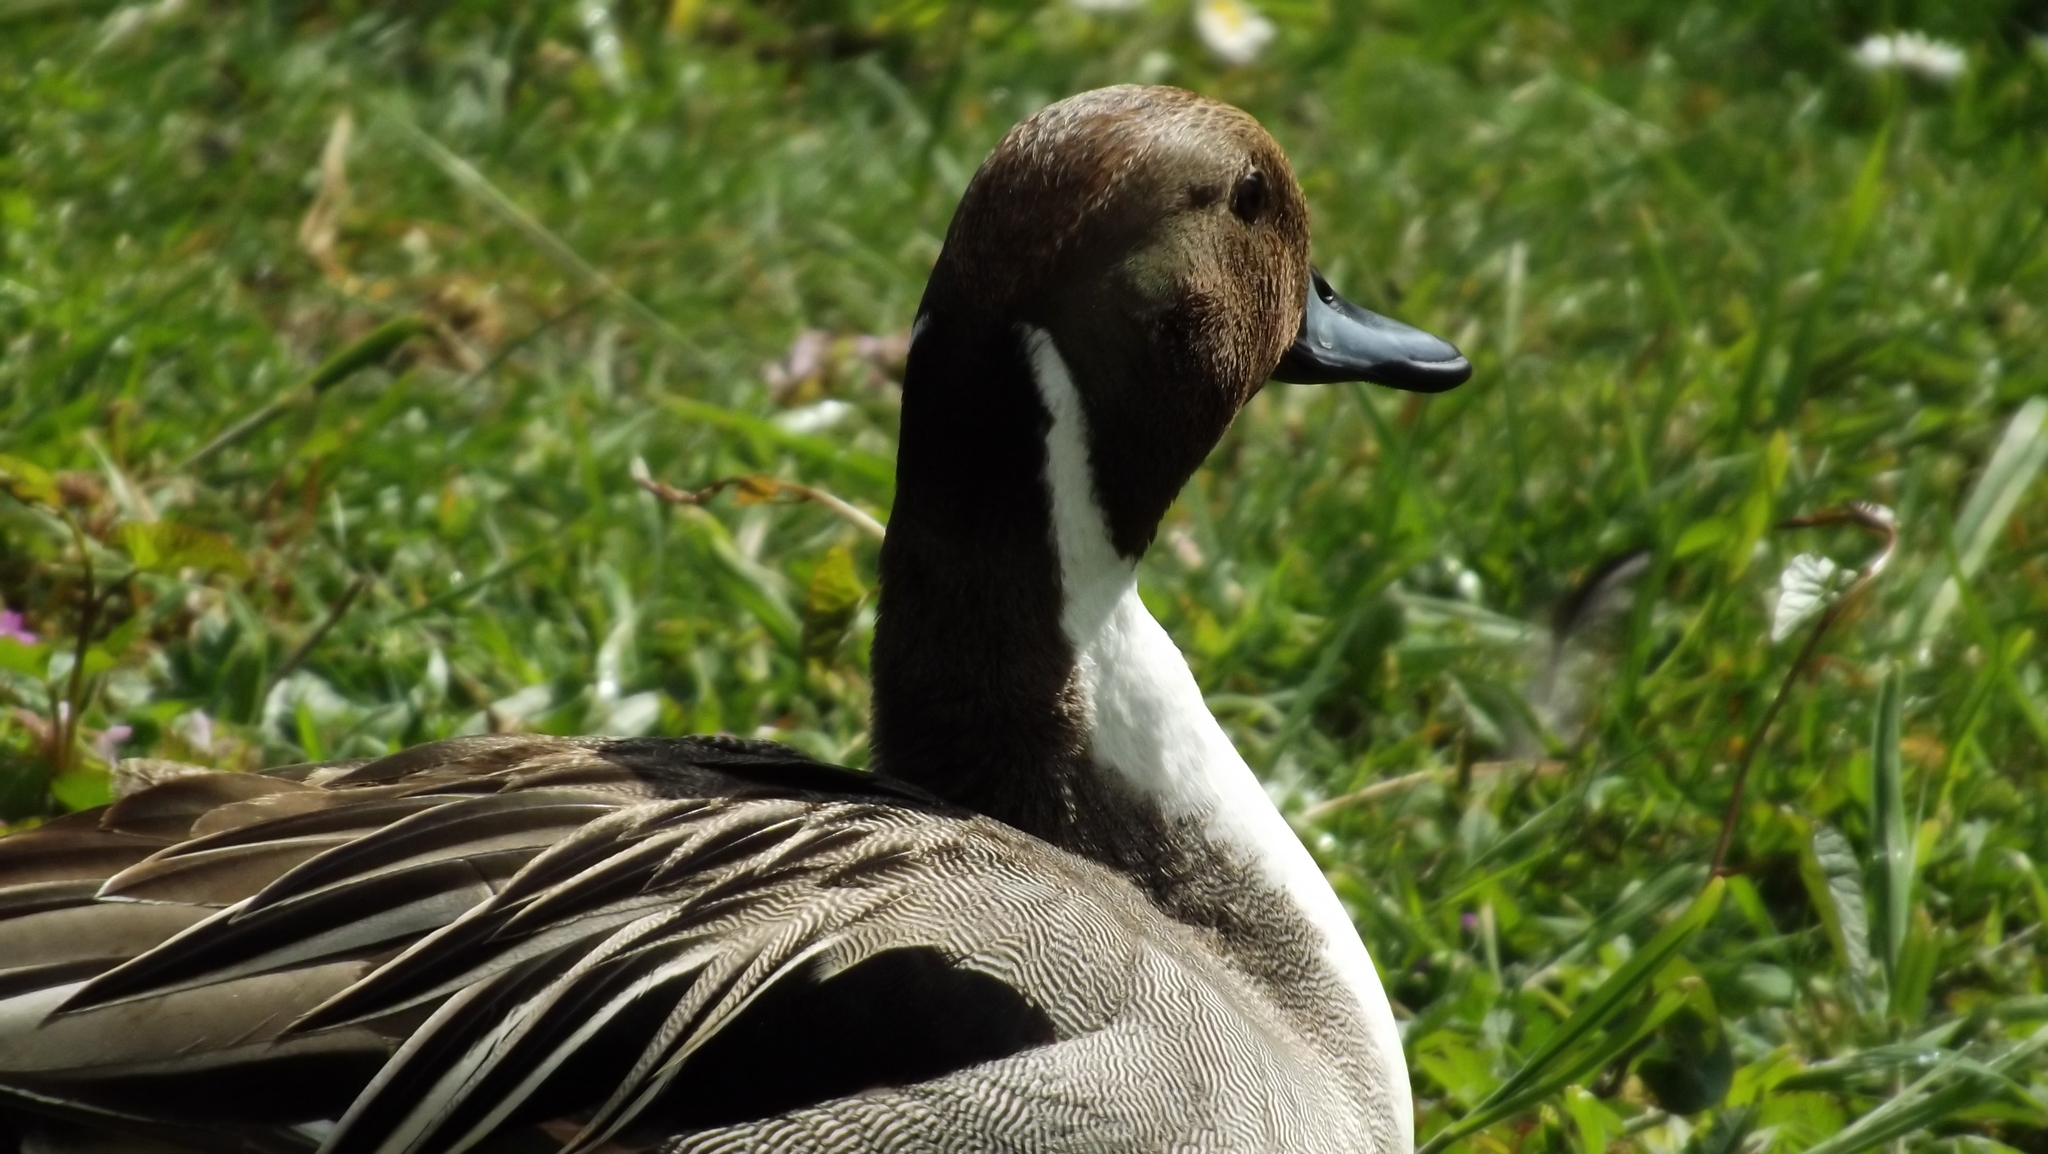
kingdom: Animalia
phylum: Chordata
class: Aves
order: Anseriformes
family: Anatidae
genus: Anas
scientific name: Anas acuta
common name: Northern pintail
